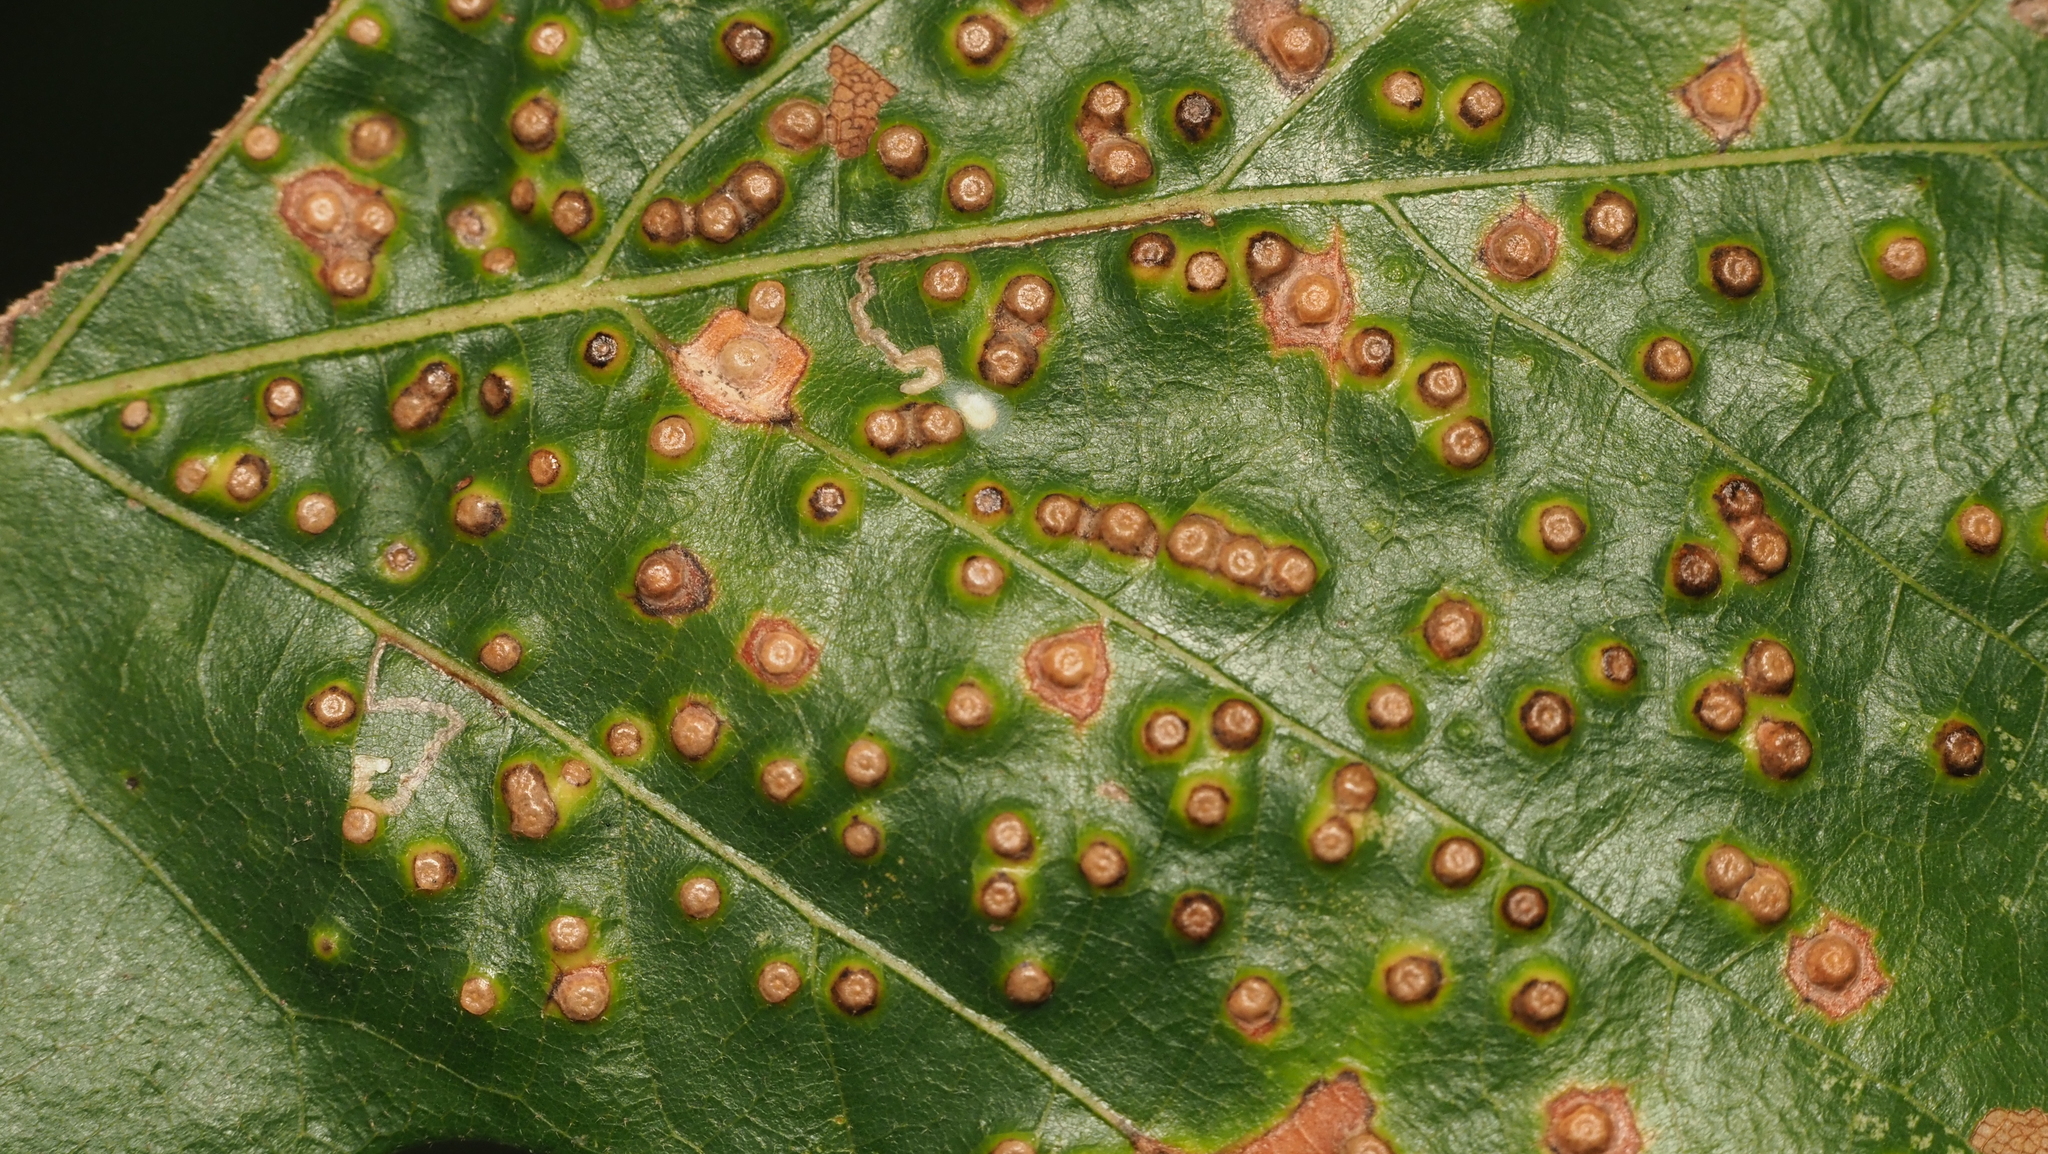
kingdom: Animalia
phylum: Arthropoda
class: Insecta
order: Hymenoptera
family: Cynipidae
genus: Neuroterus
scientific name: Neuroterus saltarius
